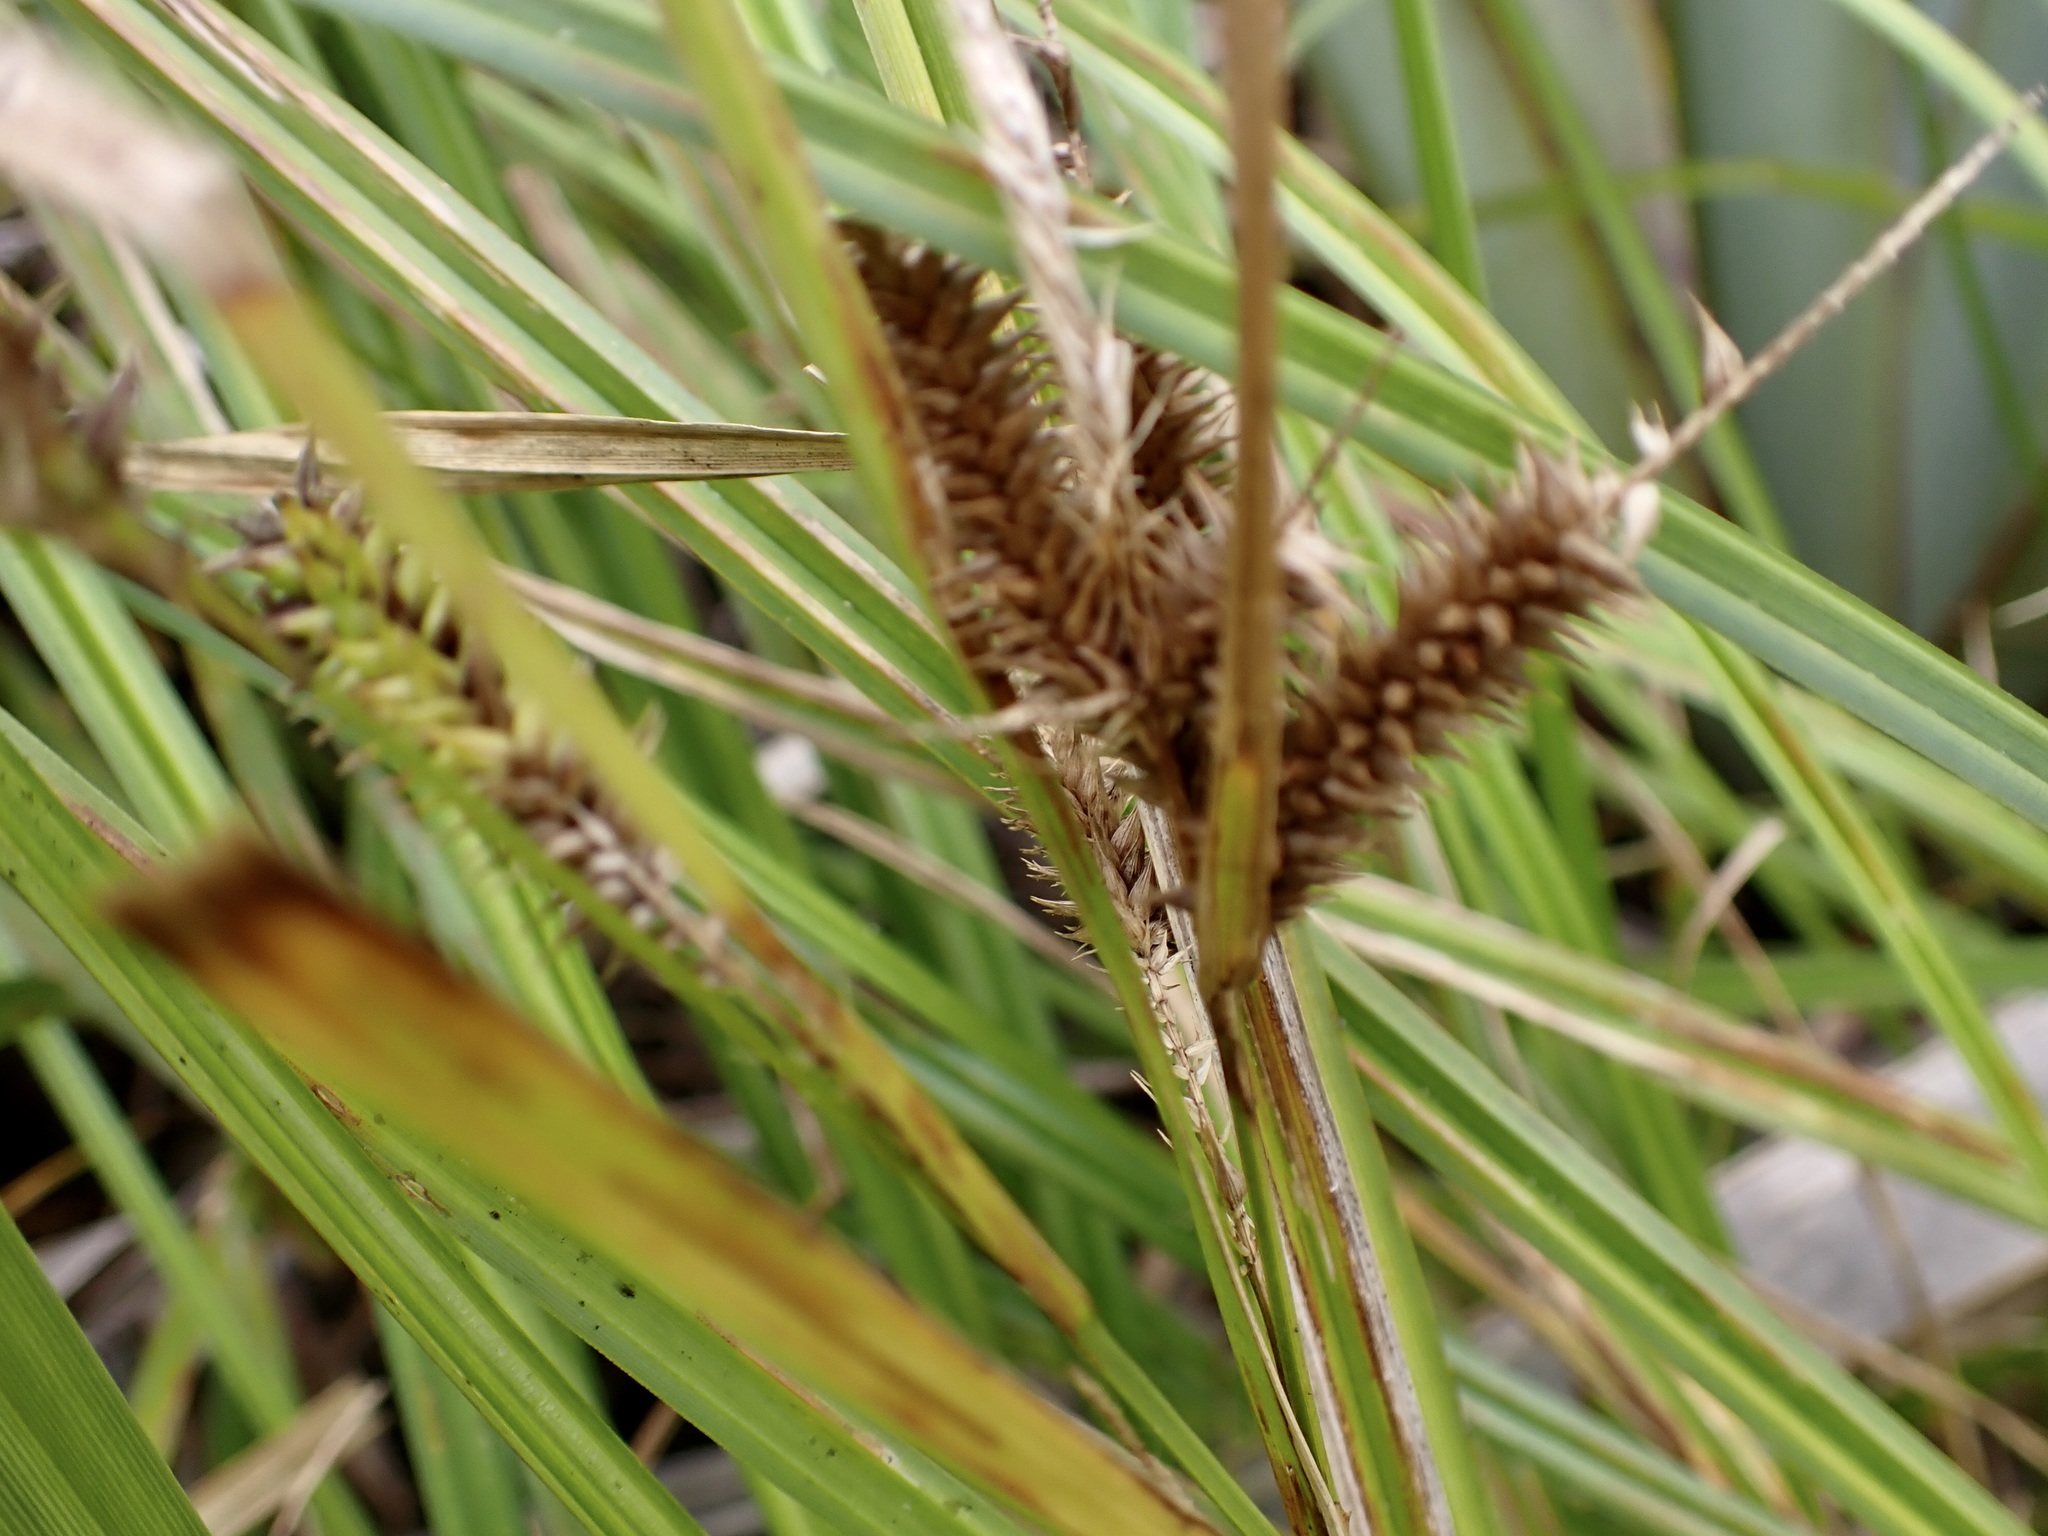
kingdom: Plantae
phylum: Tracheophyta
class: Liliopsida
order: Poales
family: Cyperaceae
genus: Carex
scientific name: Carex maorica
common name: Maori sedge
